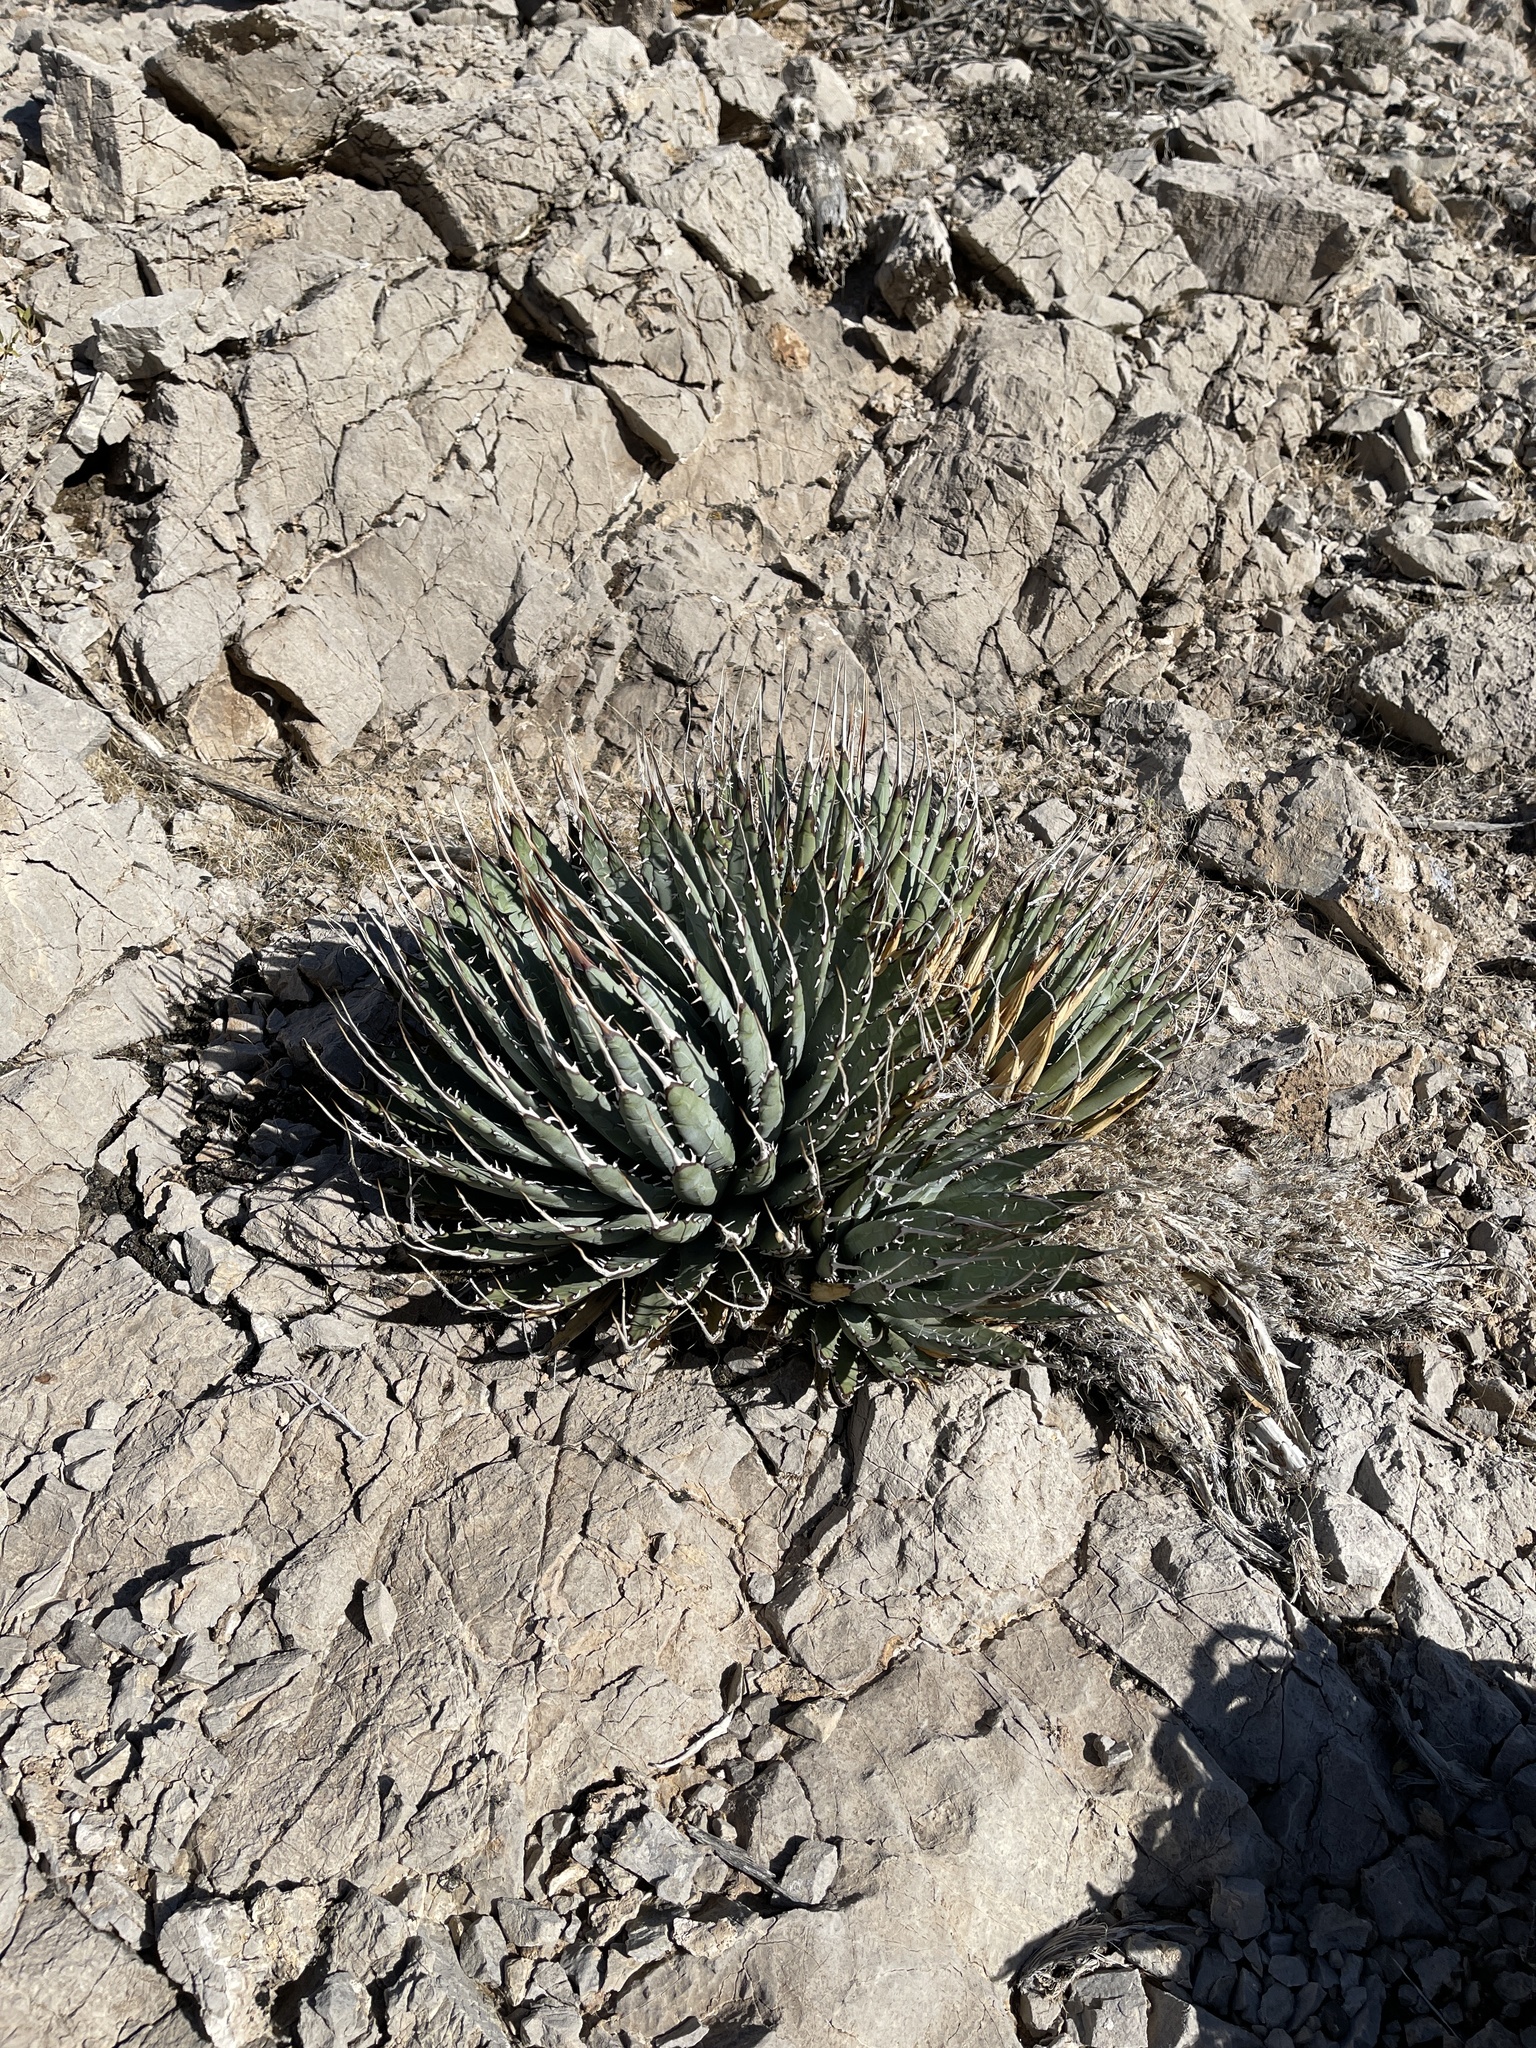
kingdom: Plantae
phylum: Tracheophyta
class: Liliopsida
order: Asparagales
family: Asparagaceae
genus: Agave
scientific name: Agave utahensis
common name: Utah agave
